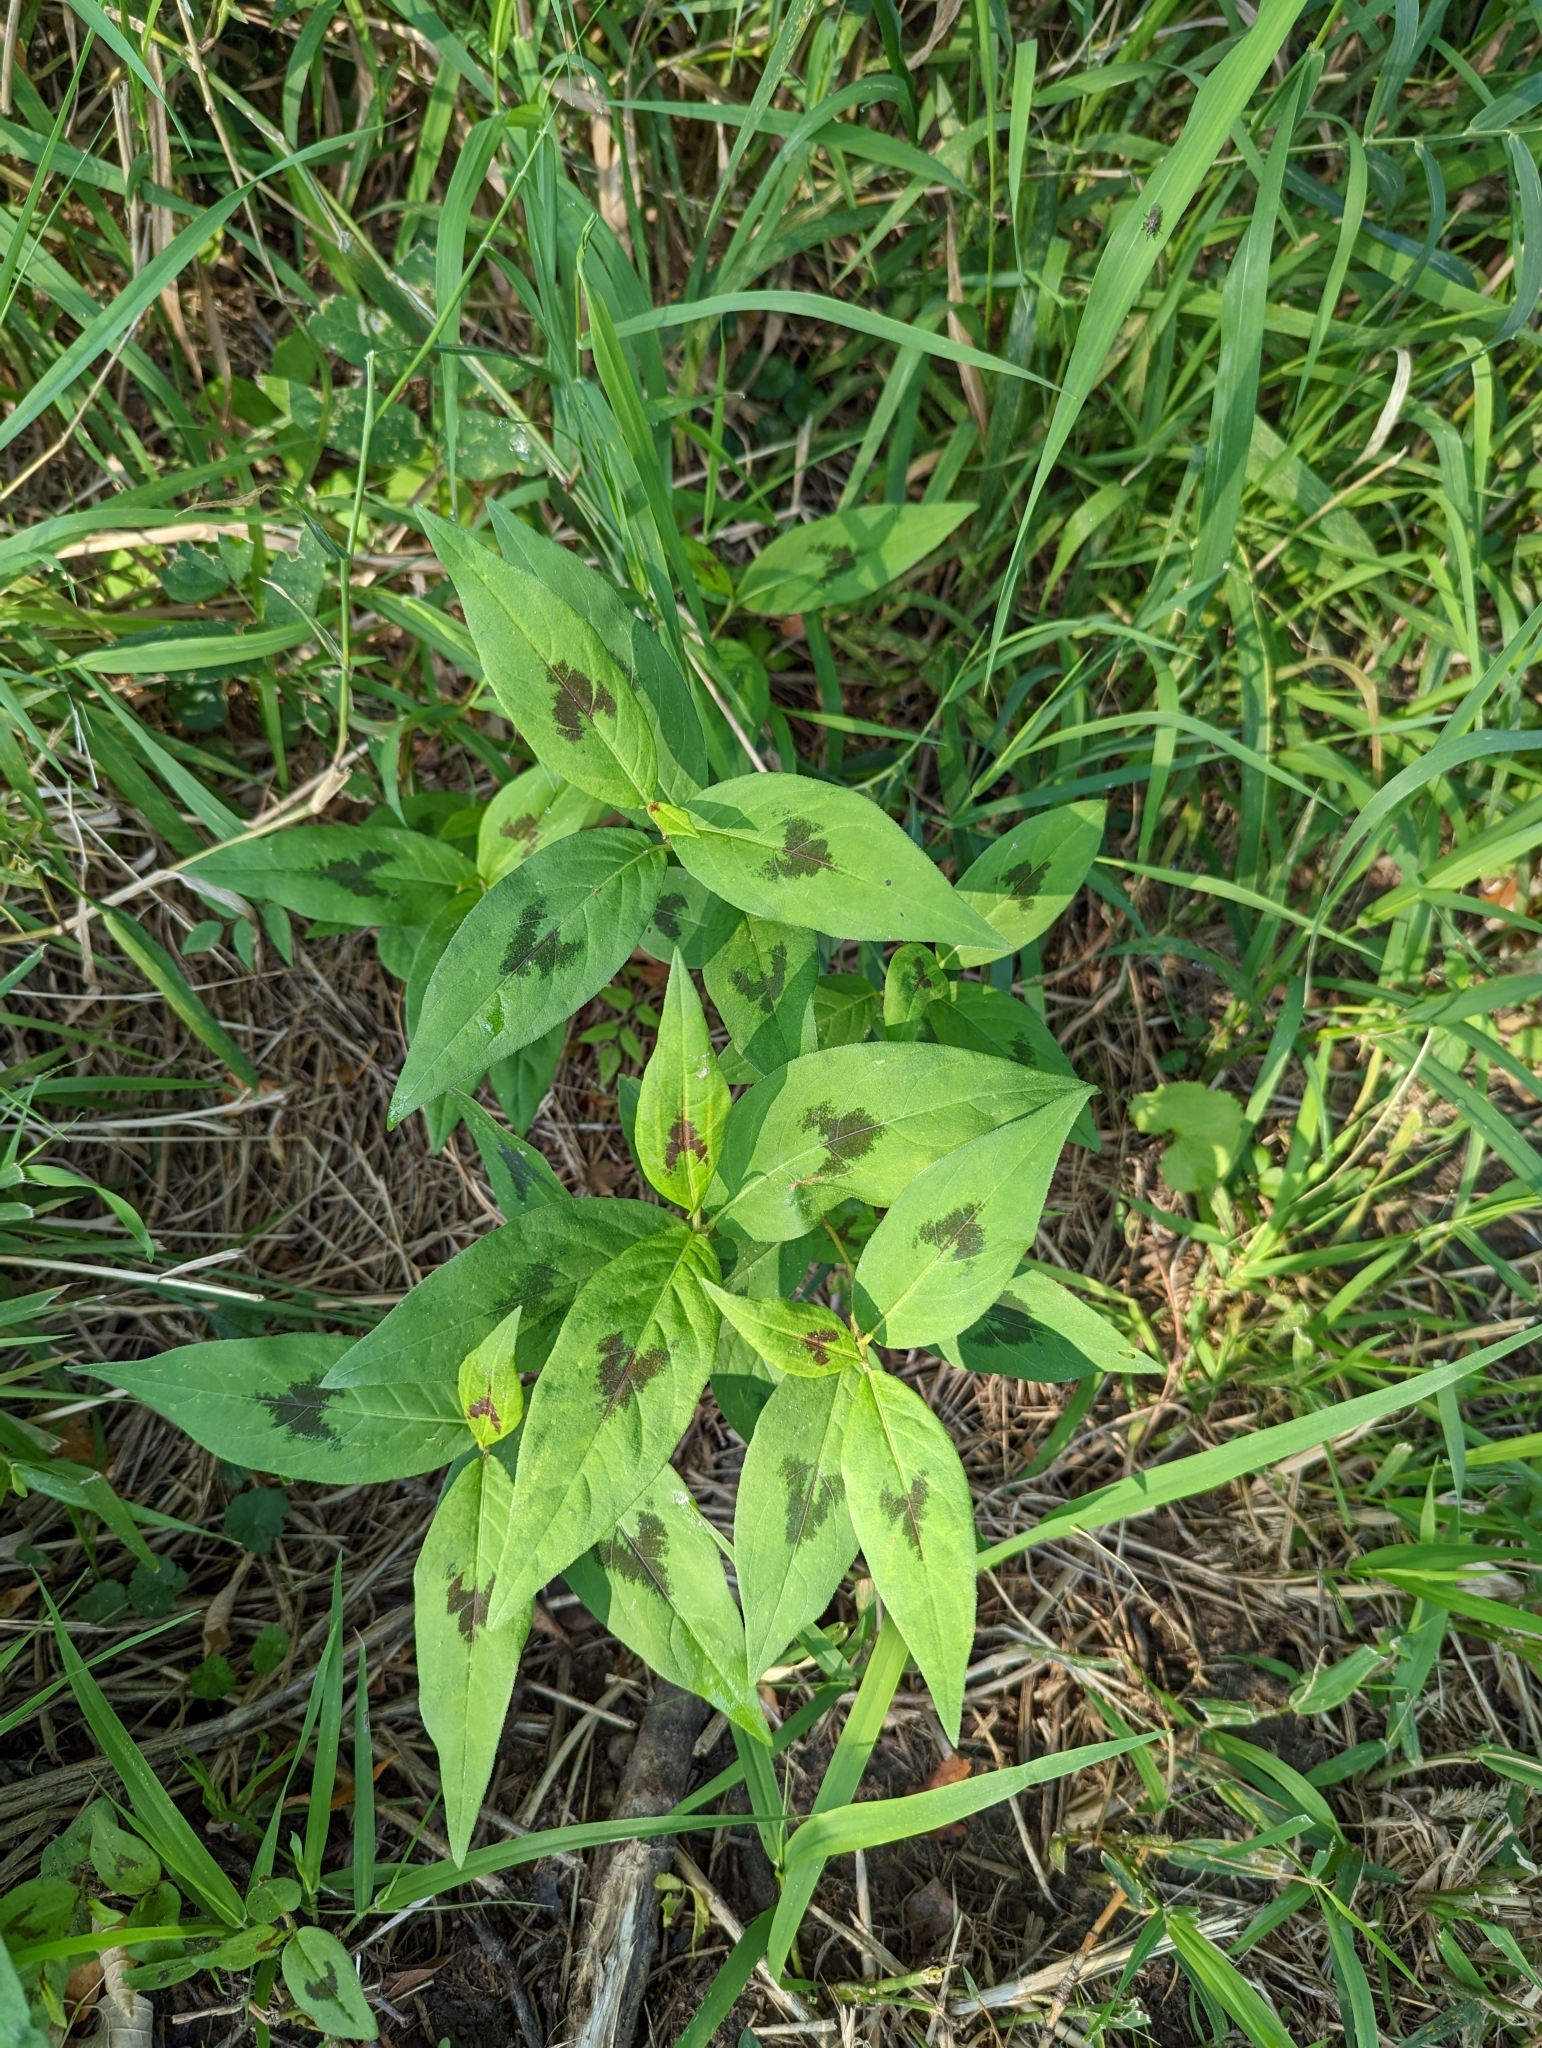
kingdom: Plantae
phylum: Tracheophyta
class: Magnoliopsida
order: Caryophyllales
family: Polygonaceae
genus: Persicaria
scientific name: Persicaria virginiana
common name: Jumpseed
